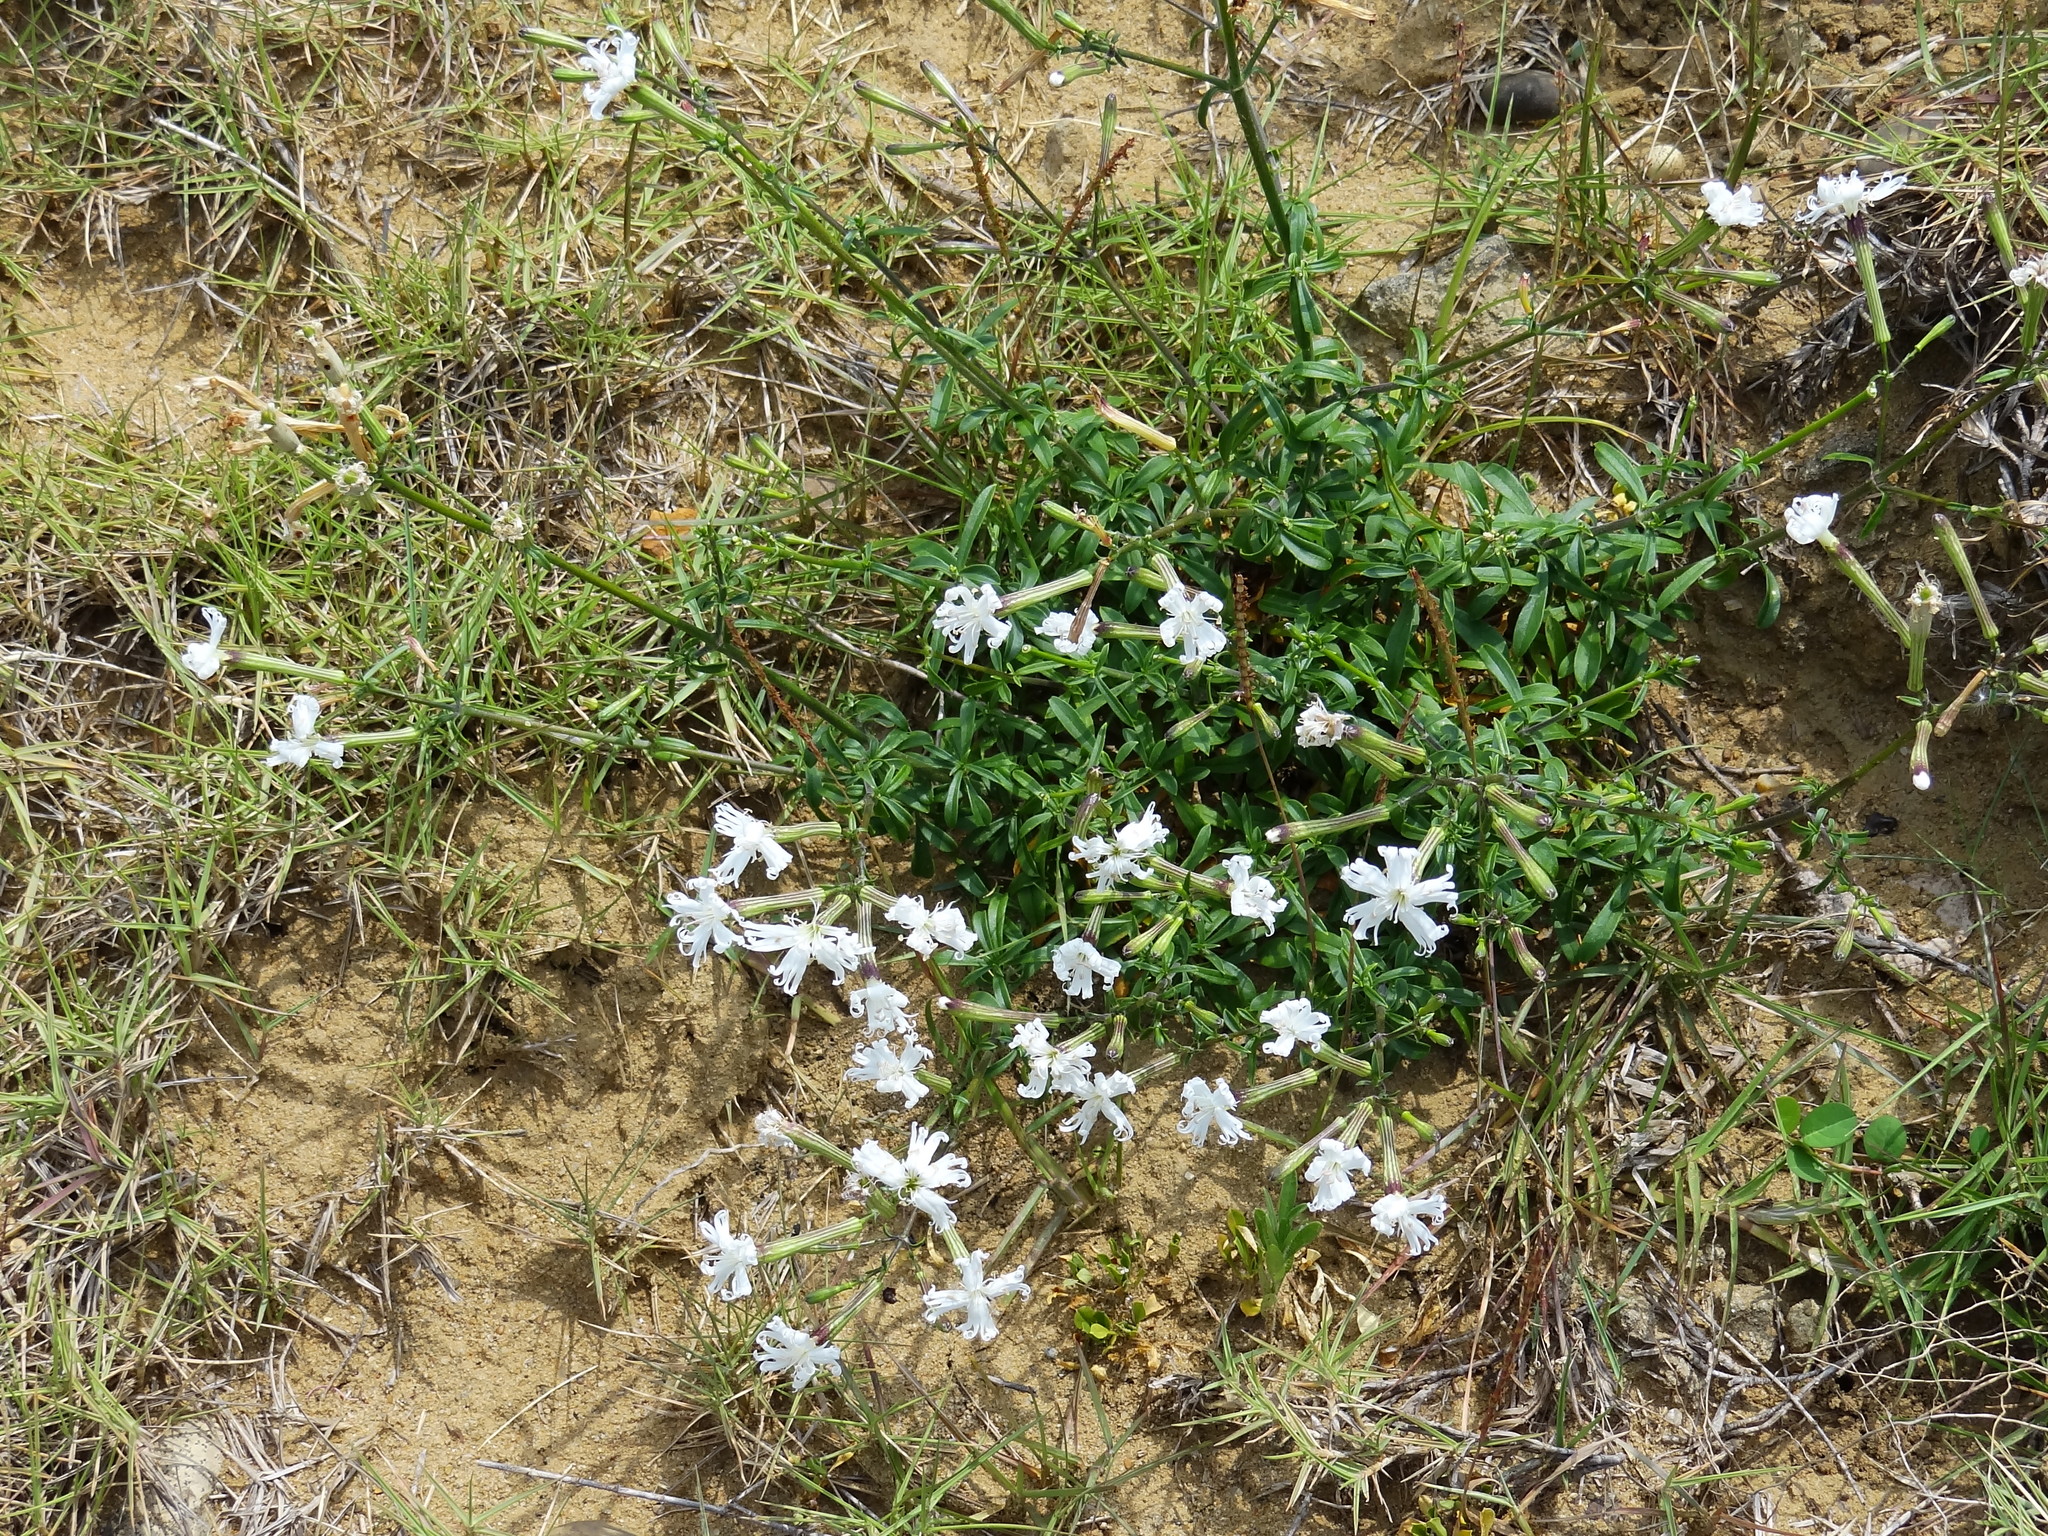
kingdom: Plantae
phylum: Tracheophyta
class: Magnoliopsida
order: Caryophyllales
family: Caryophyllaceae
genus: Silene
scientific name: Silene fissipetala
